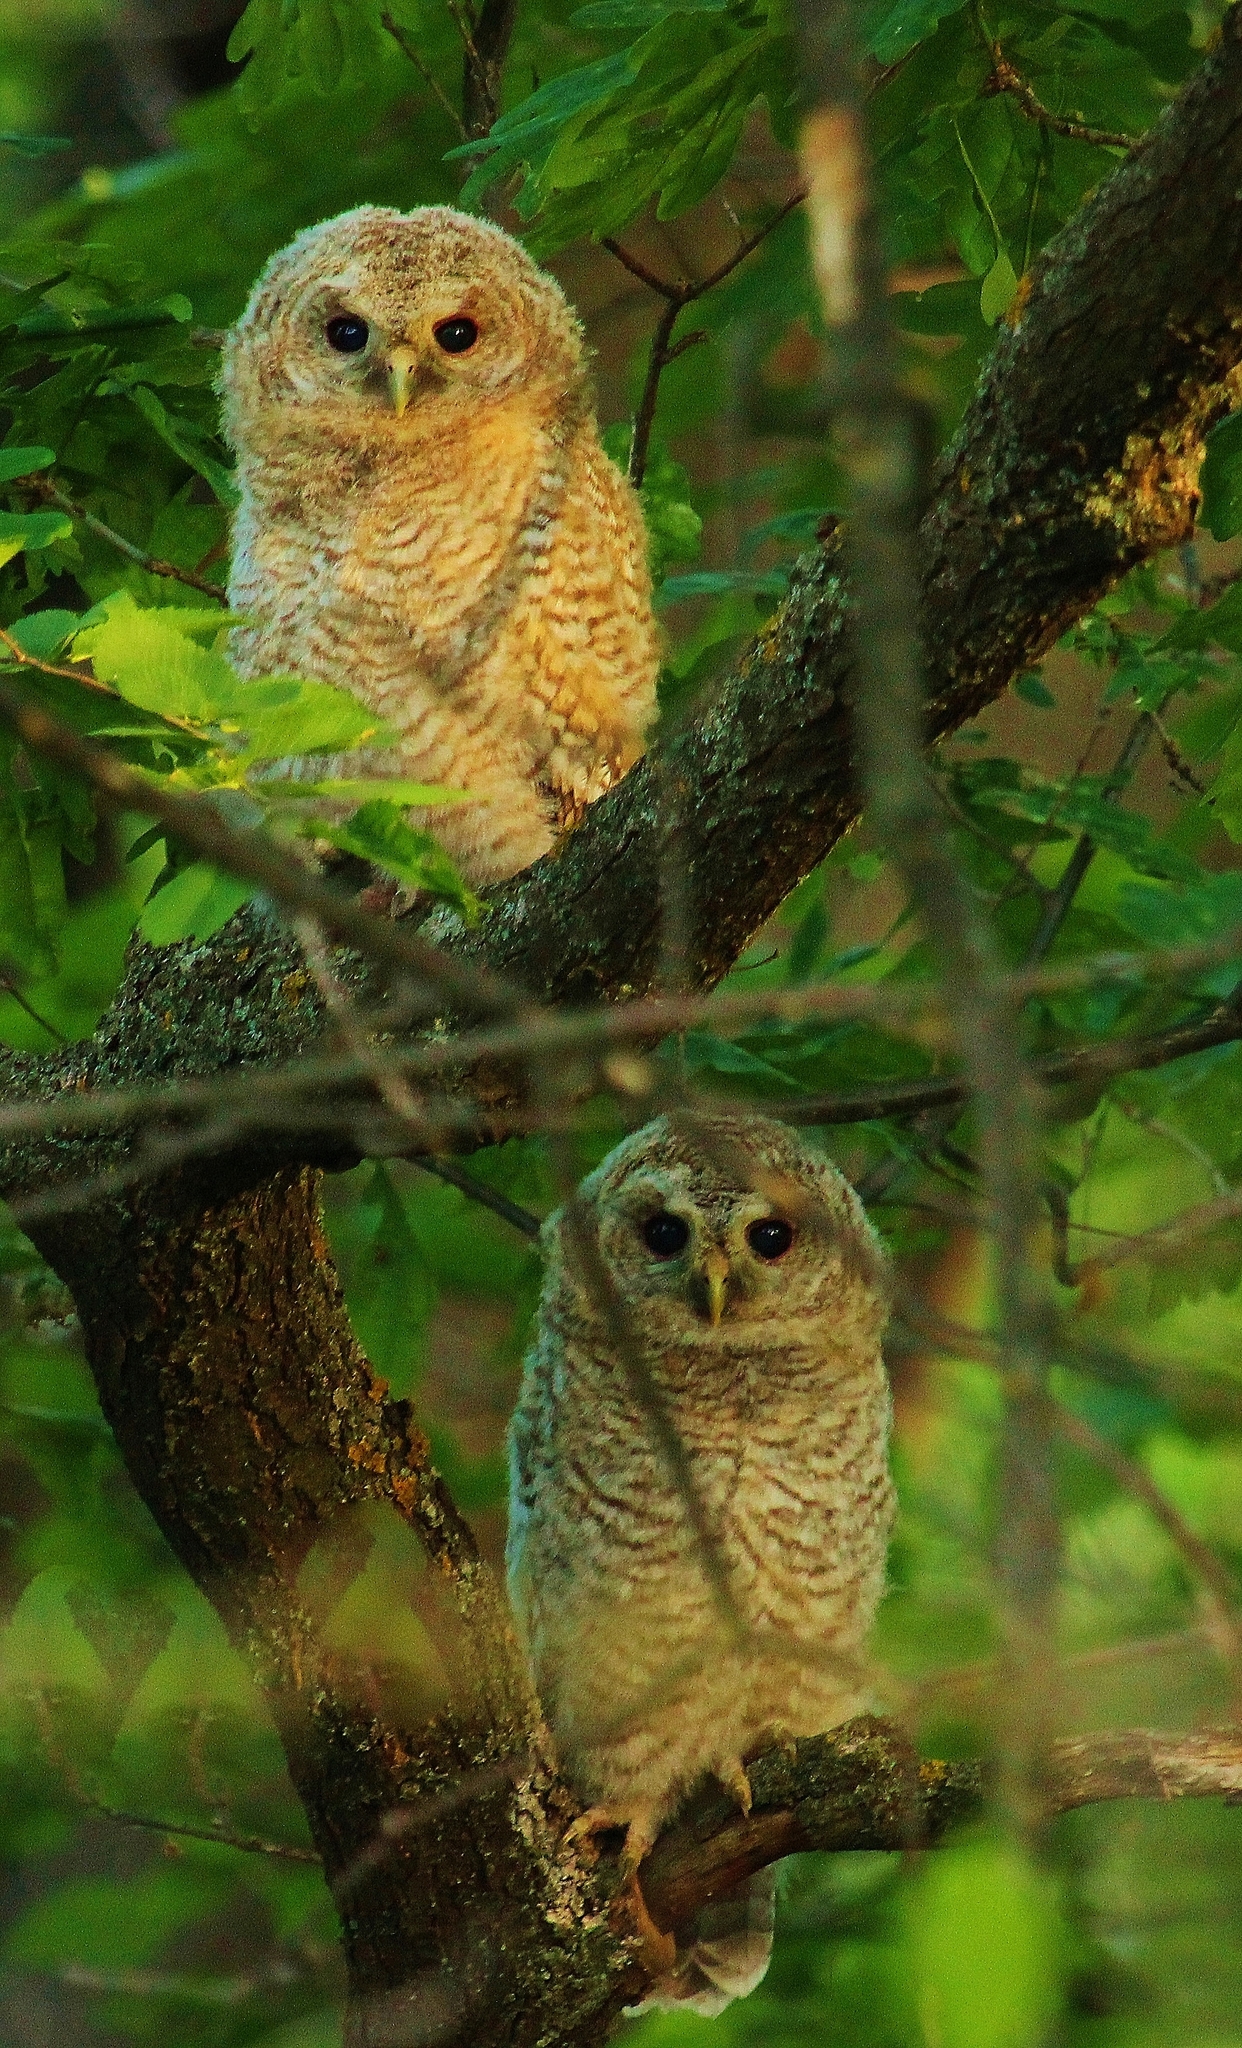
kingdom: Animalia
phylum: Chordata
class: Aves
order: Strigiformes
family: Strigidae
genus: Strix
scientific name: Strix aluco
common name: Tawny owl
